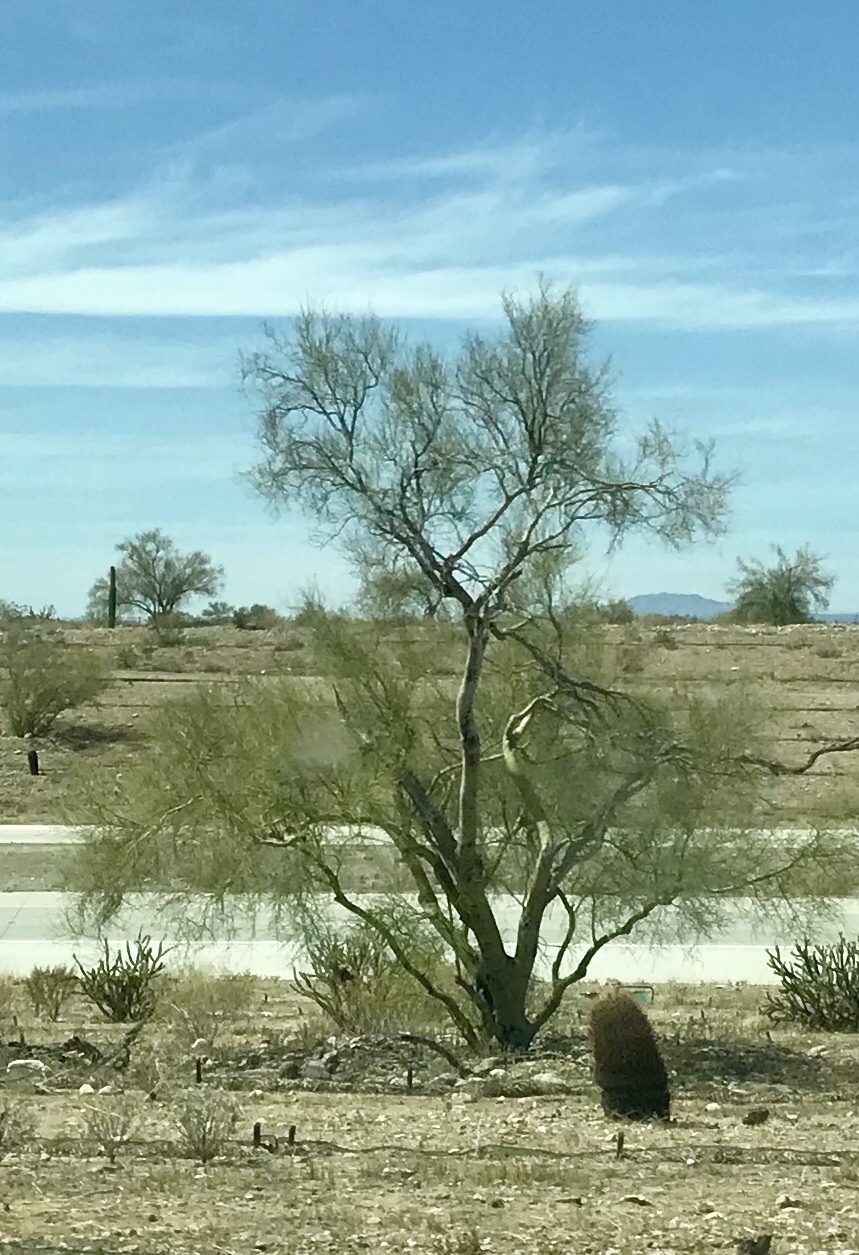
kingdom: Plantae
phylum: Tracheophyta
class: Magnoliopsida
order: Fabales
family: Fabaceae
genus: Parkinsonia
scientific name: Parkinsonia microphylla
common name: Yellow paloverde
